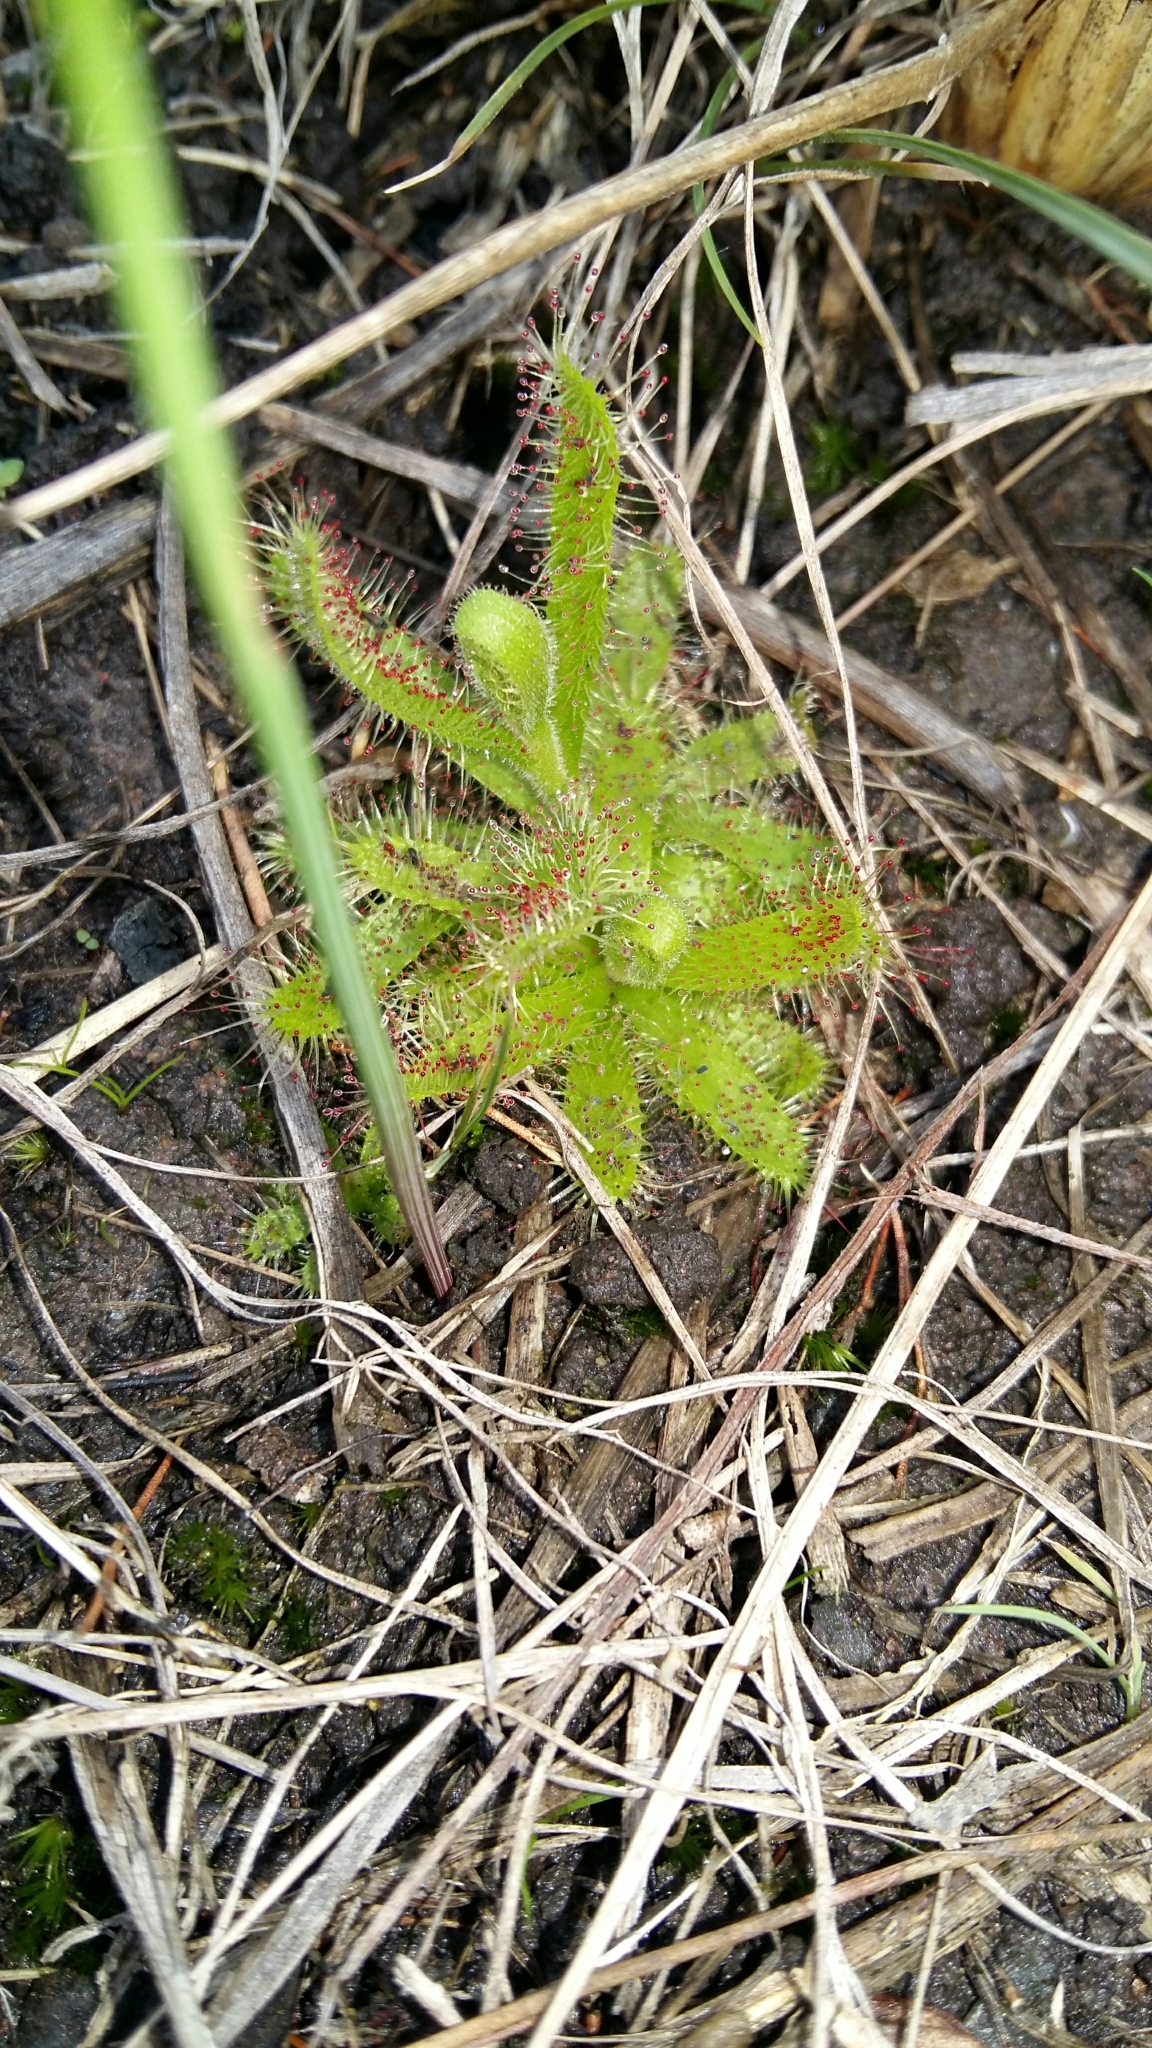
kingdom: Plantae
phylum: Tracheophyta
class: Magnoliopsida
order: Caryophyllales
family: Droseraceae
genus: Drosera
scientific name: Drosera cistiflora
